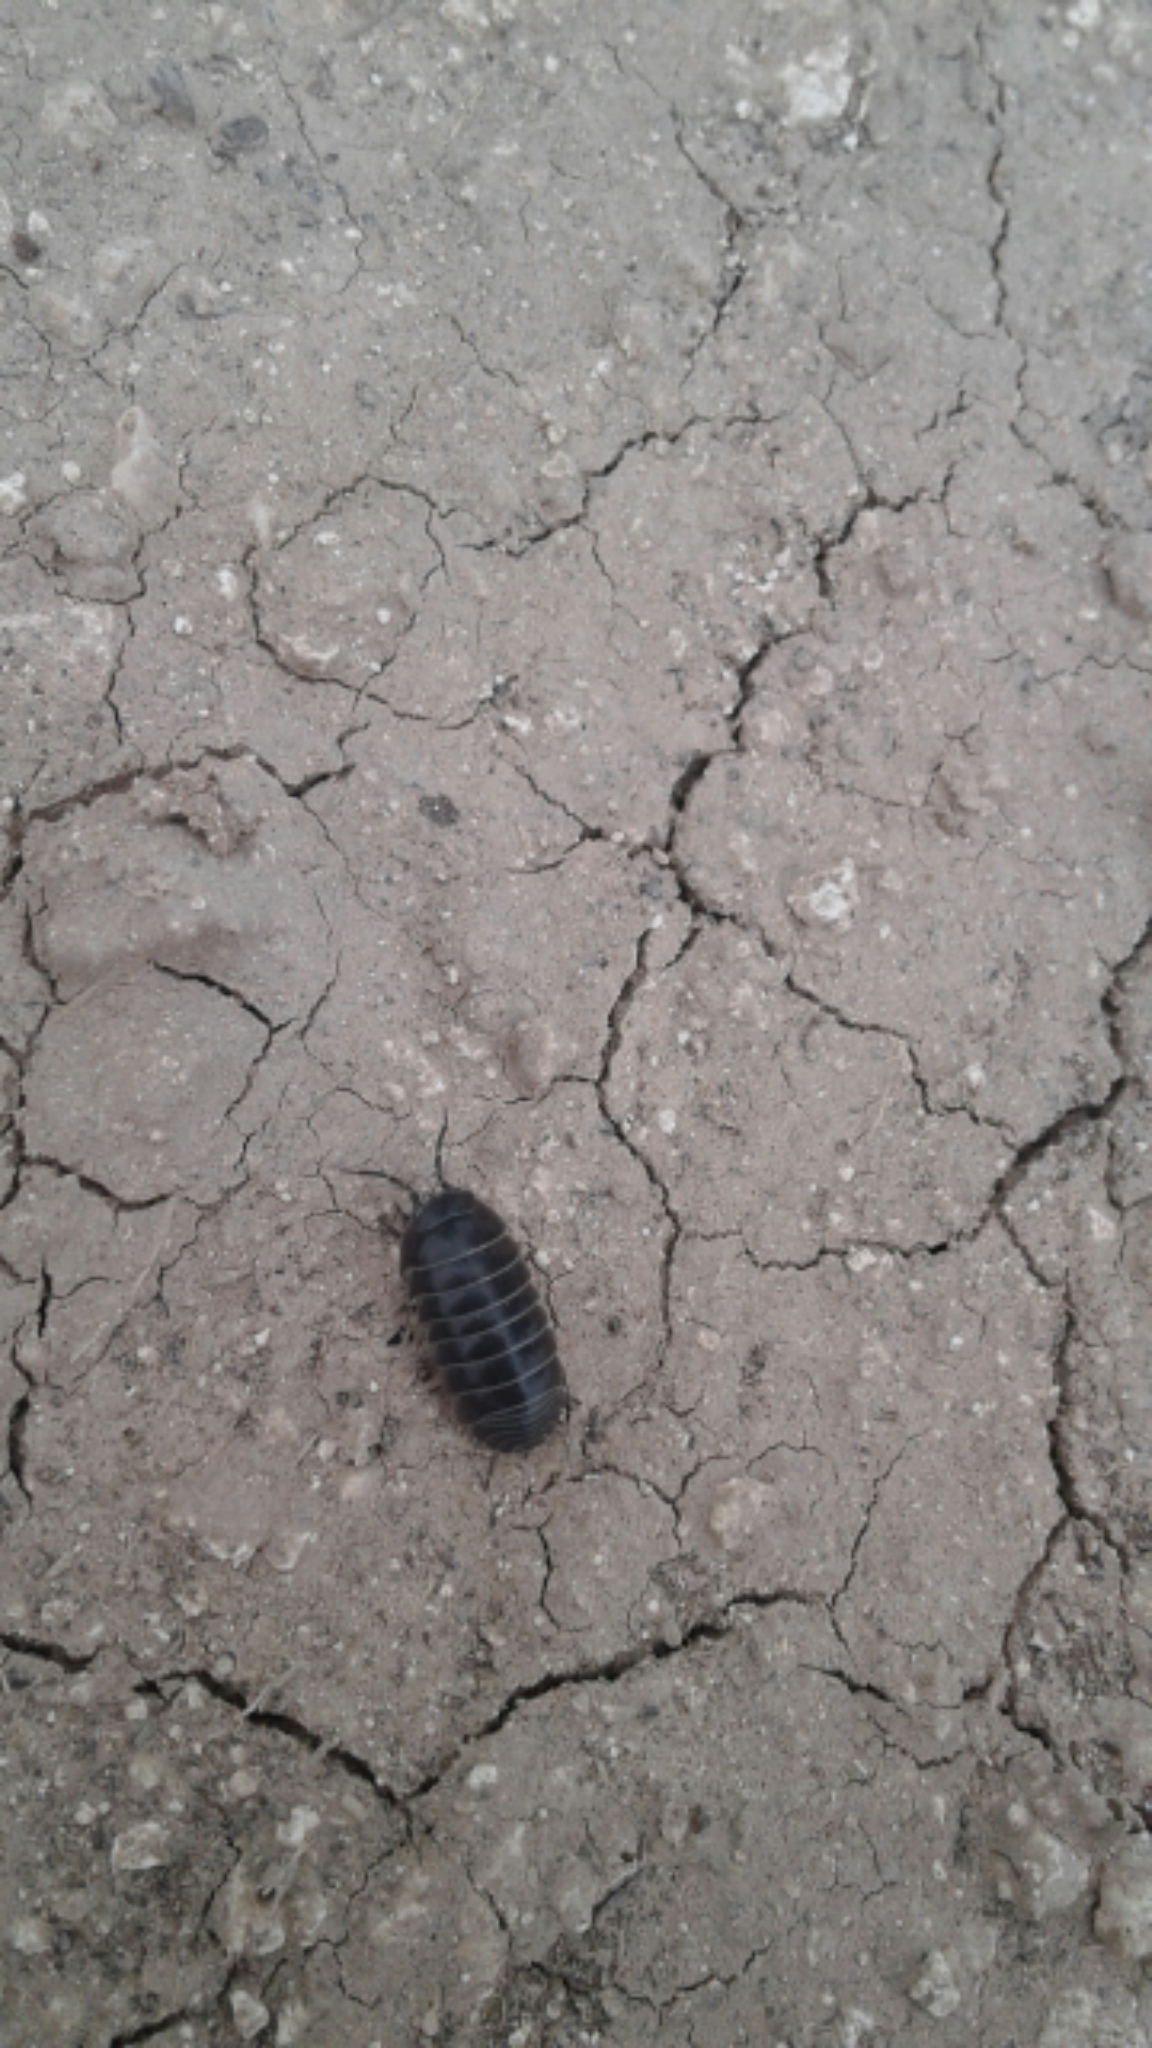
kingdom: Animalia
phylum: Arthropoda
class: Malacostraca
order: Isopoda
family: Armadillidiidae
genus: Armadillidium
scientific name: Armadillidium vulgare
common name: Common pill woodlouse
